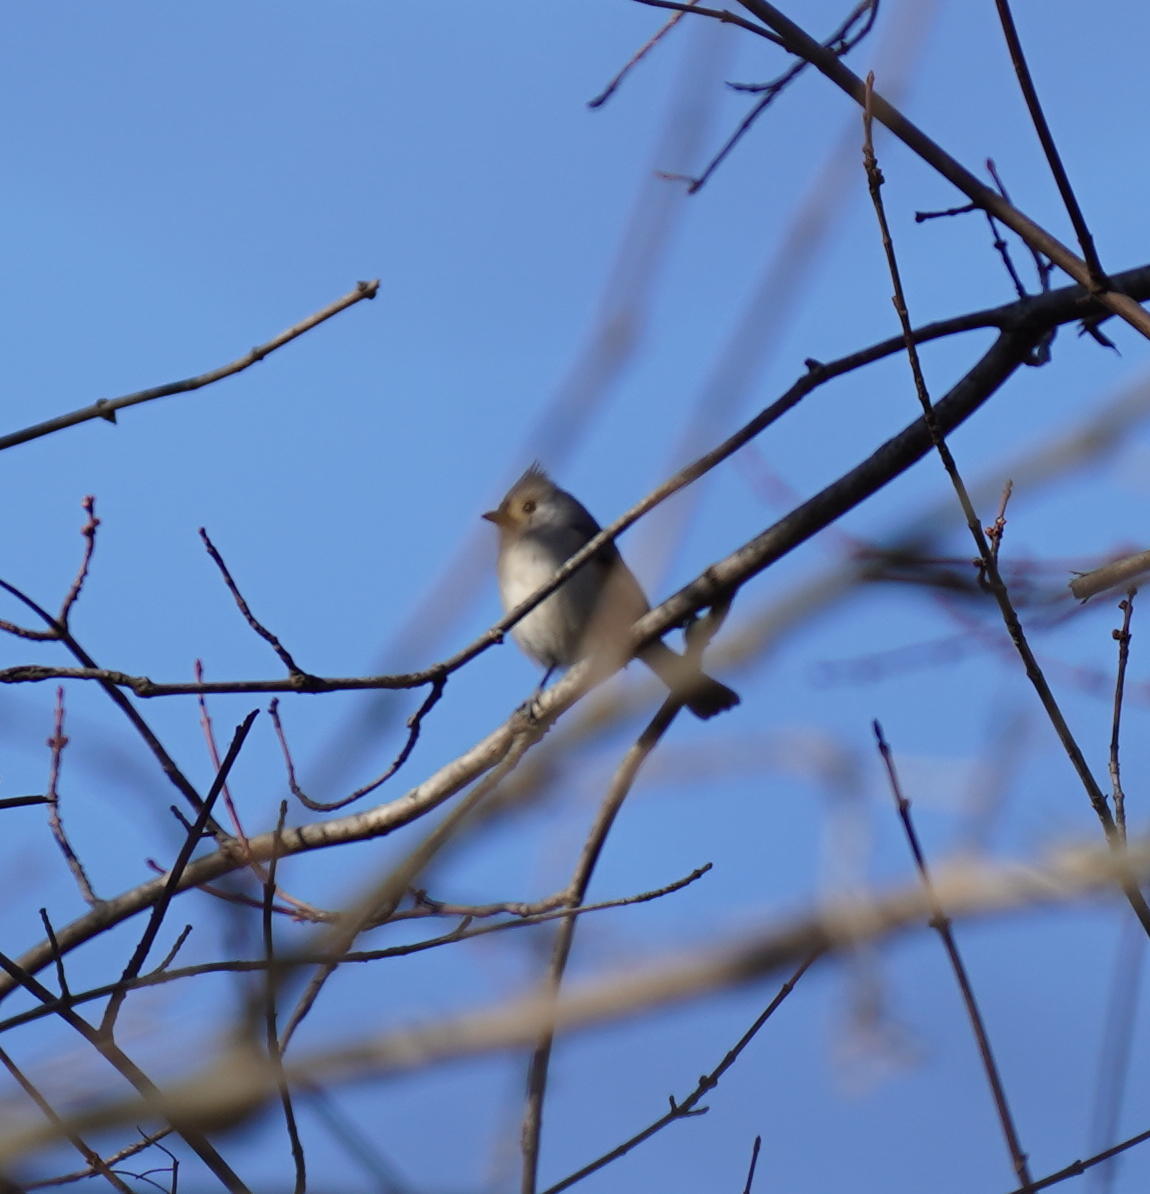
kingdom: Animalia
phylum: Chordata
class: Aves
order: Passeriformes
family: Paridae
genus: Baeolophus
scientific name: Baeolophus bicolor
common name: Tufted titmouse
